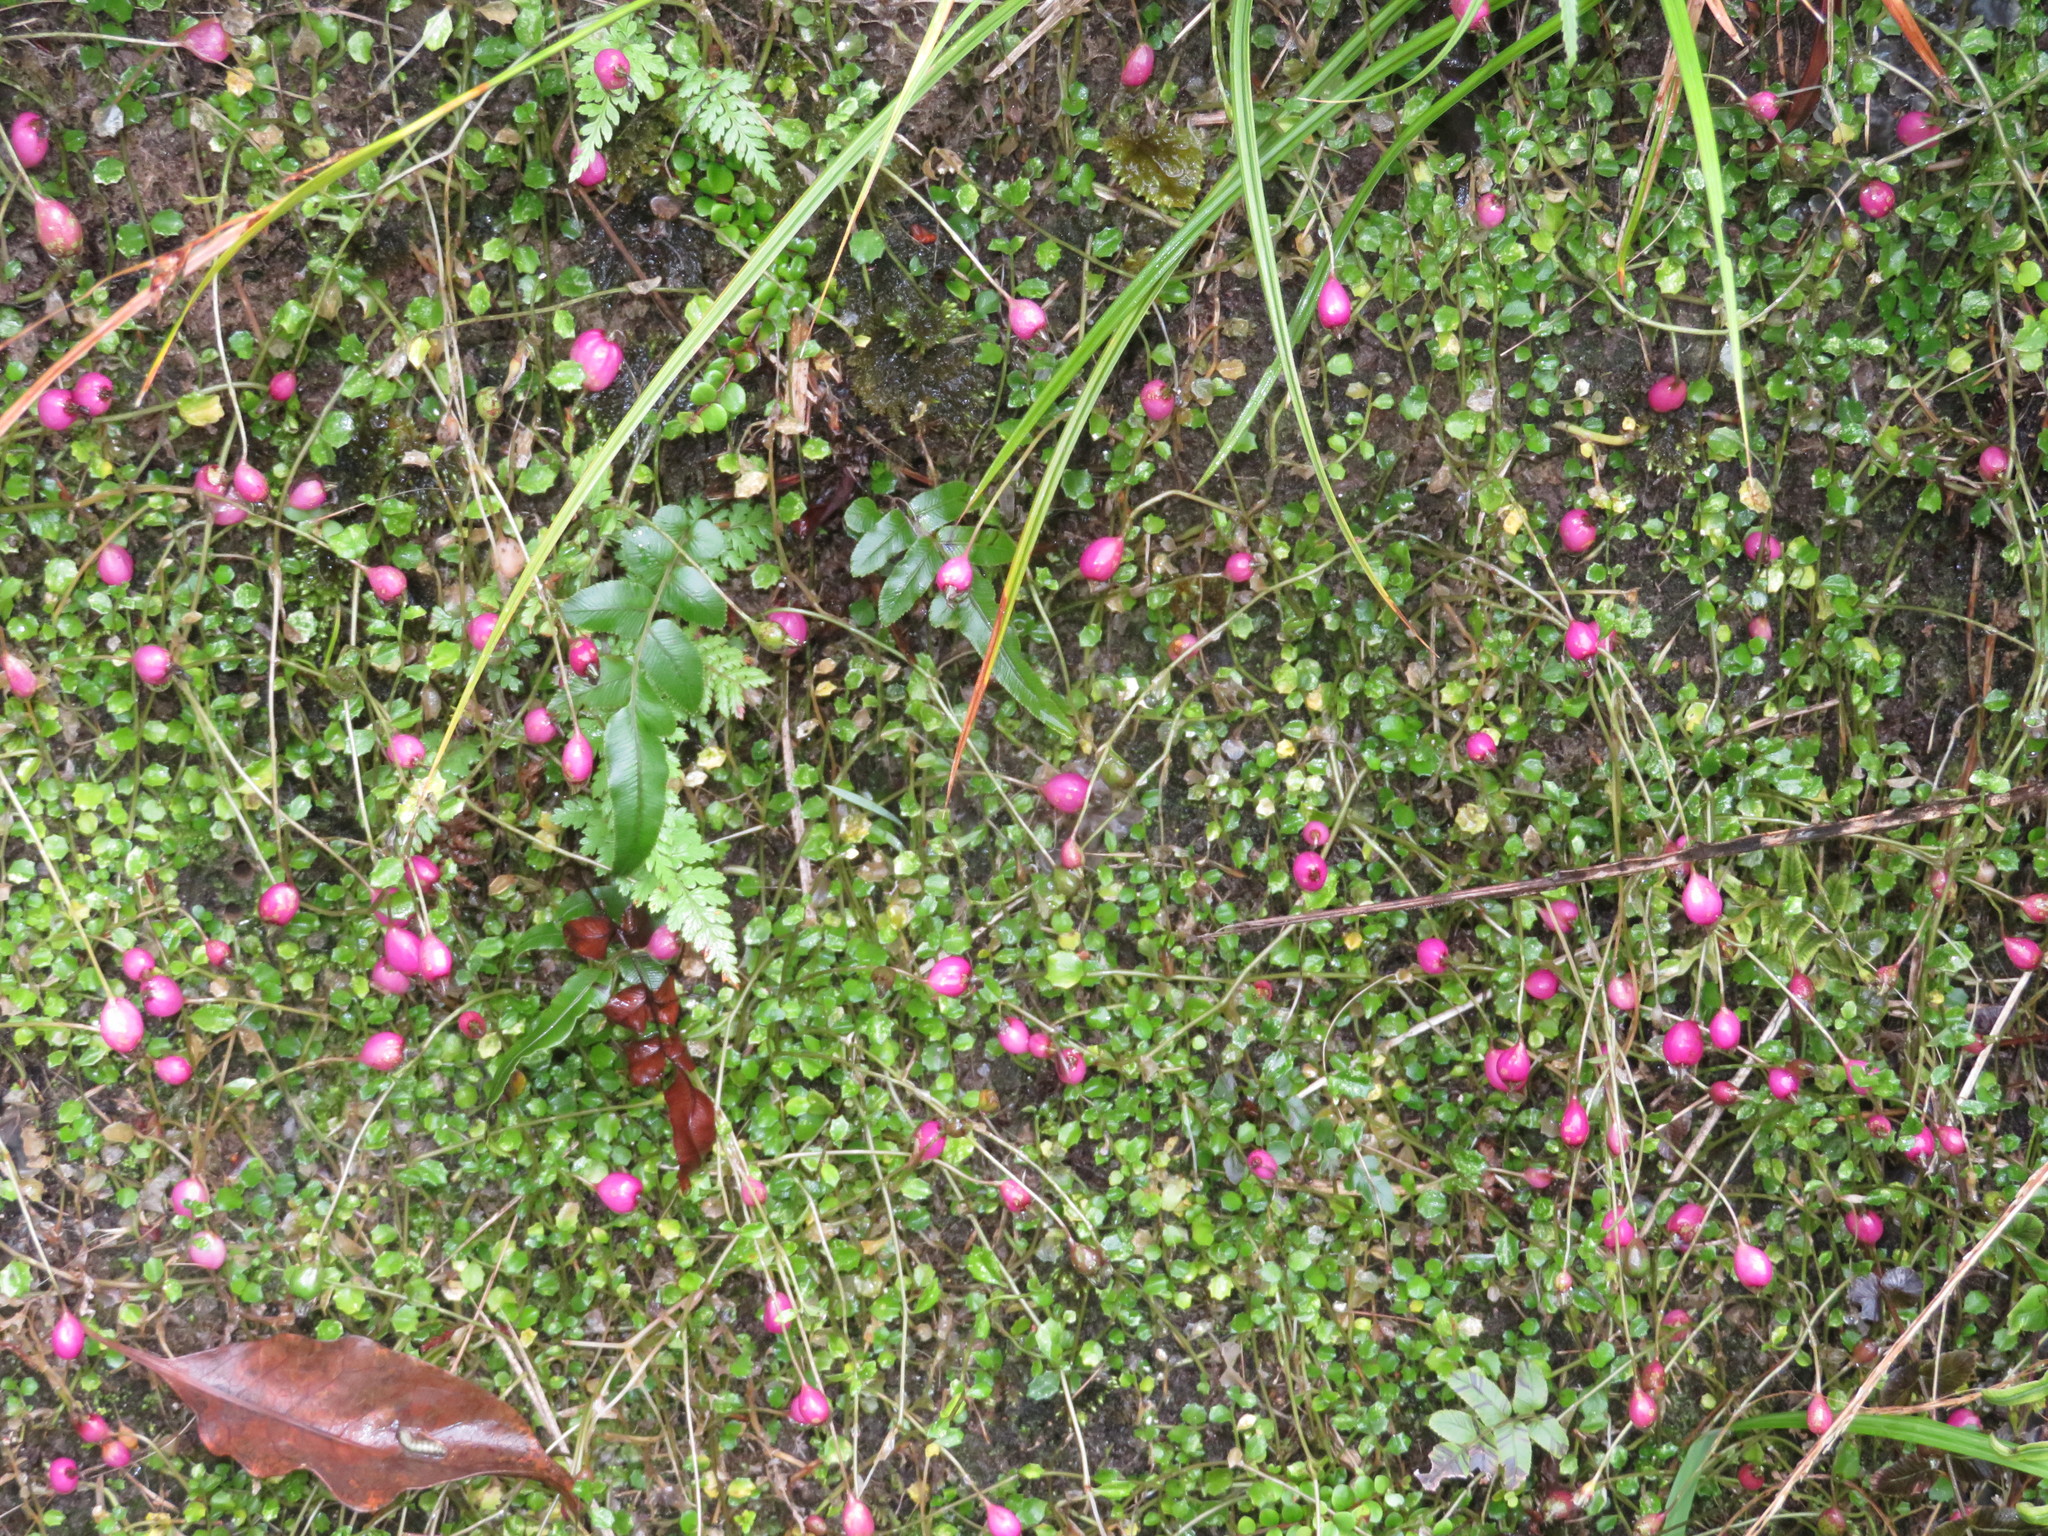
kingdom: Plantae
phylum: Tracheophyta
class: Magnoliopsida
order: Asterales
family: Campanulaceae
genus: Lobelia
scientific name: Lobelia angulata
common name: Lawn lobelia
